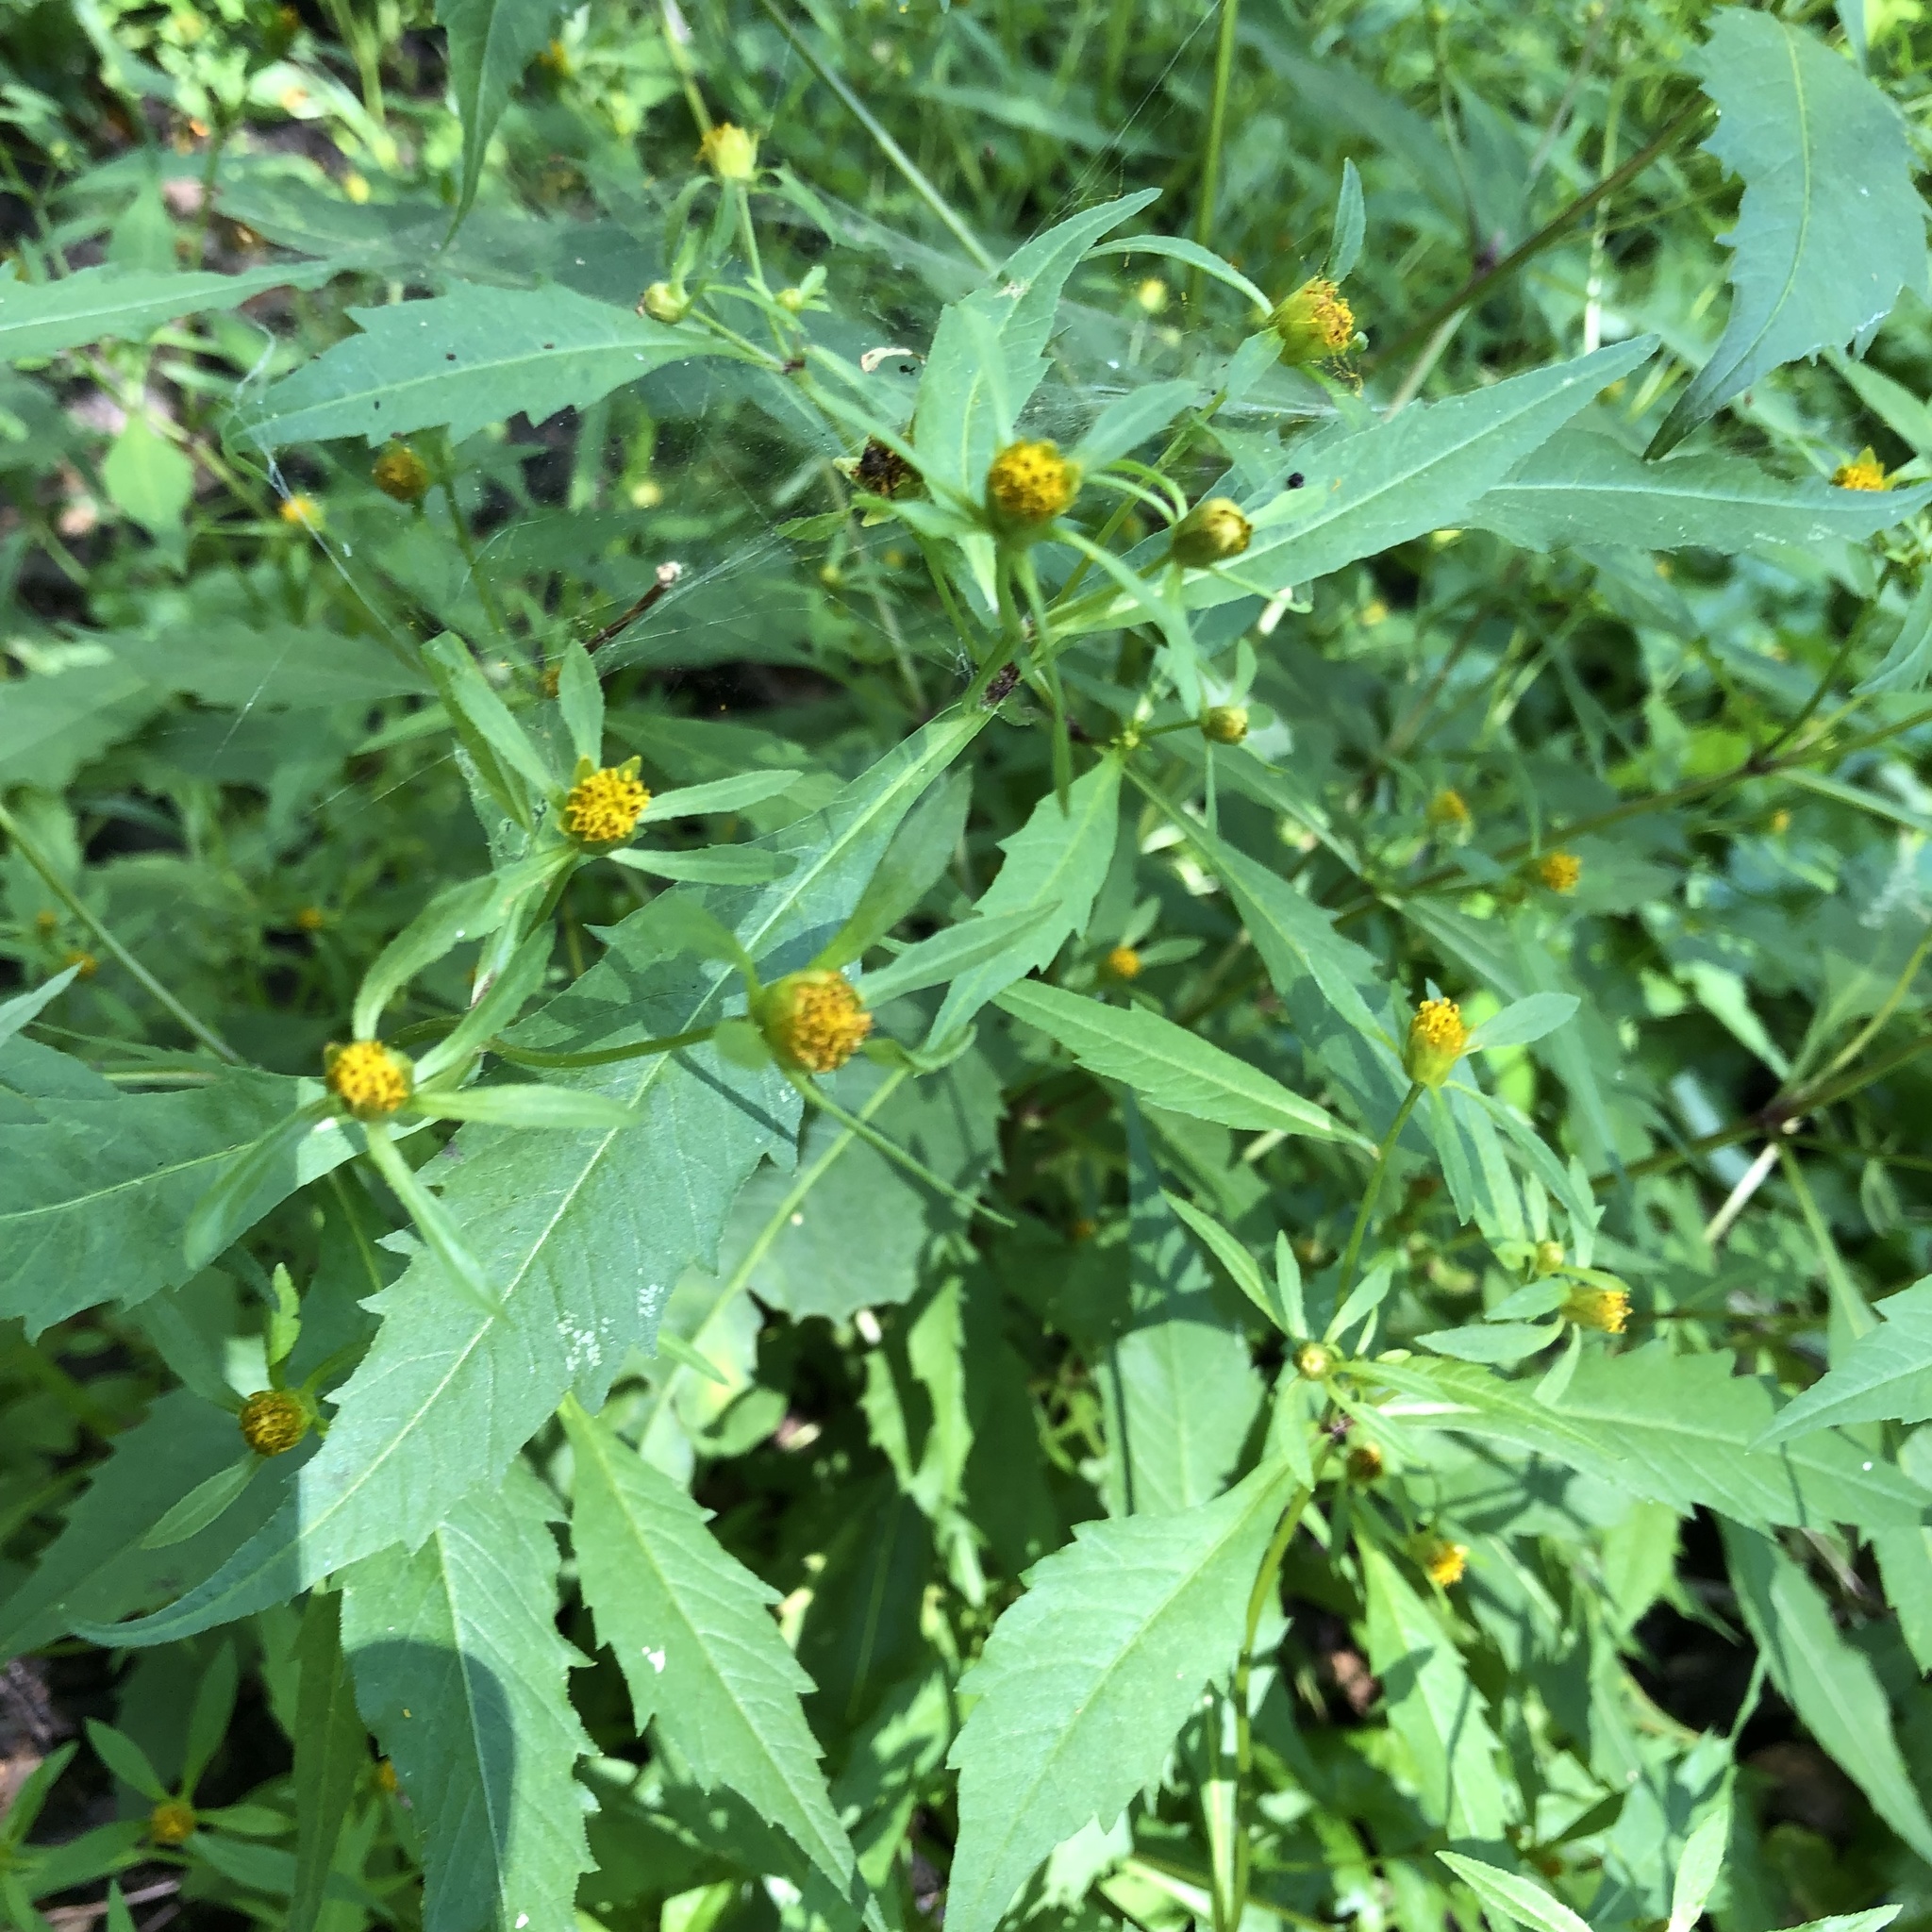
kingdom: Plantae
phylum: Tracheophyta
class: Magnoliopsida
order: Asterales
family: Asteraceae
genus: Bidens
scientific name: Bidens connata
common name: London bur-marigold
